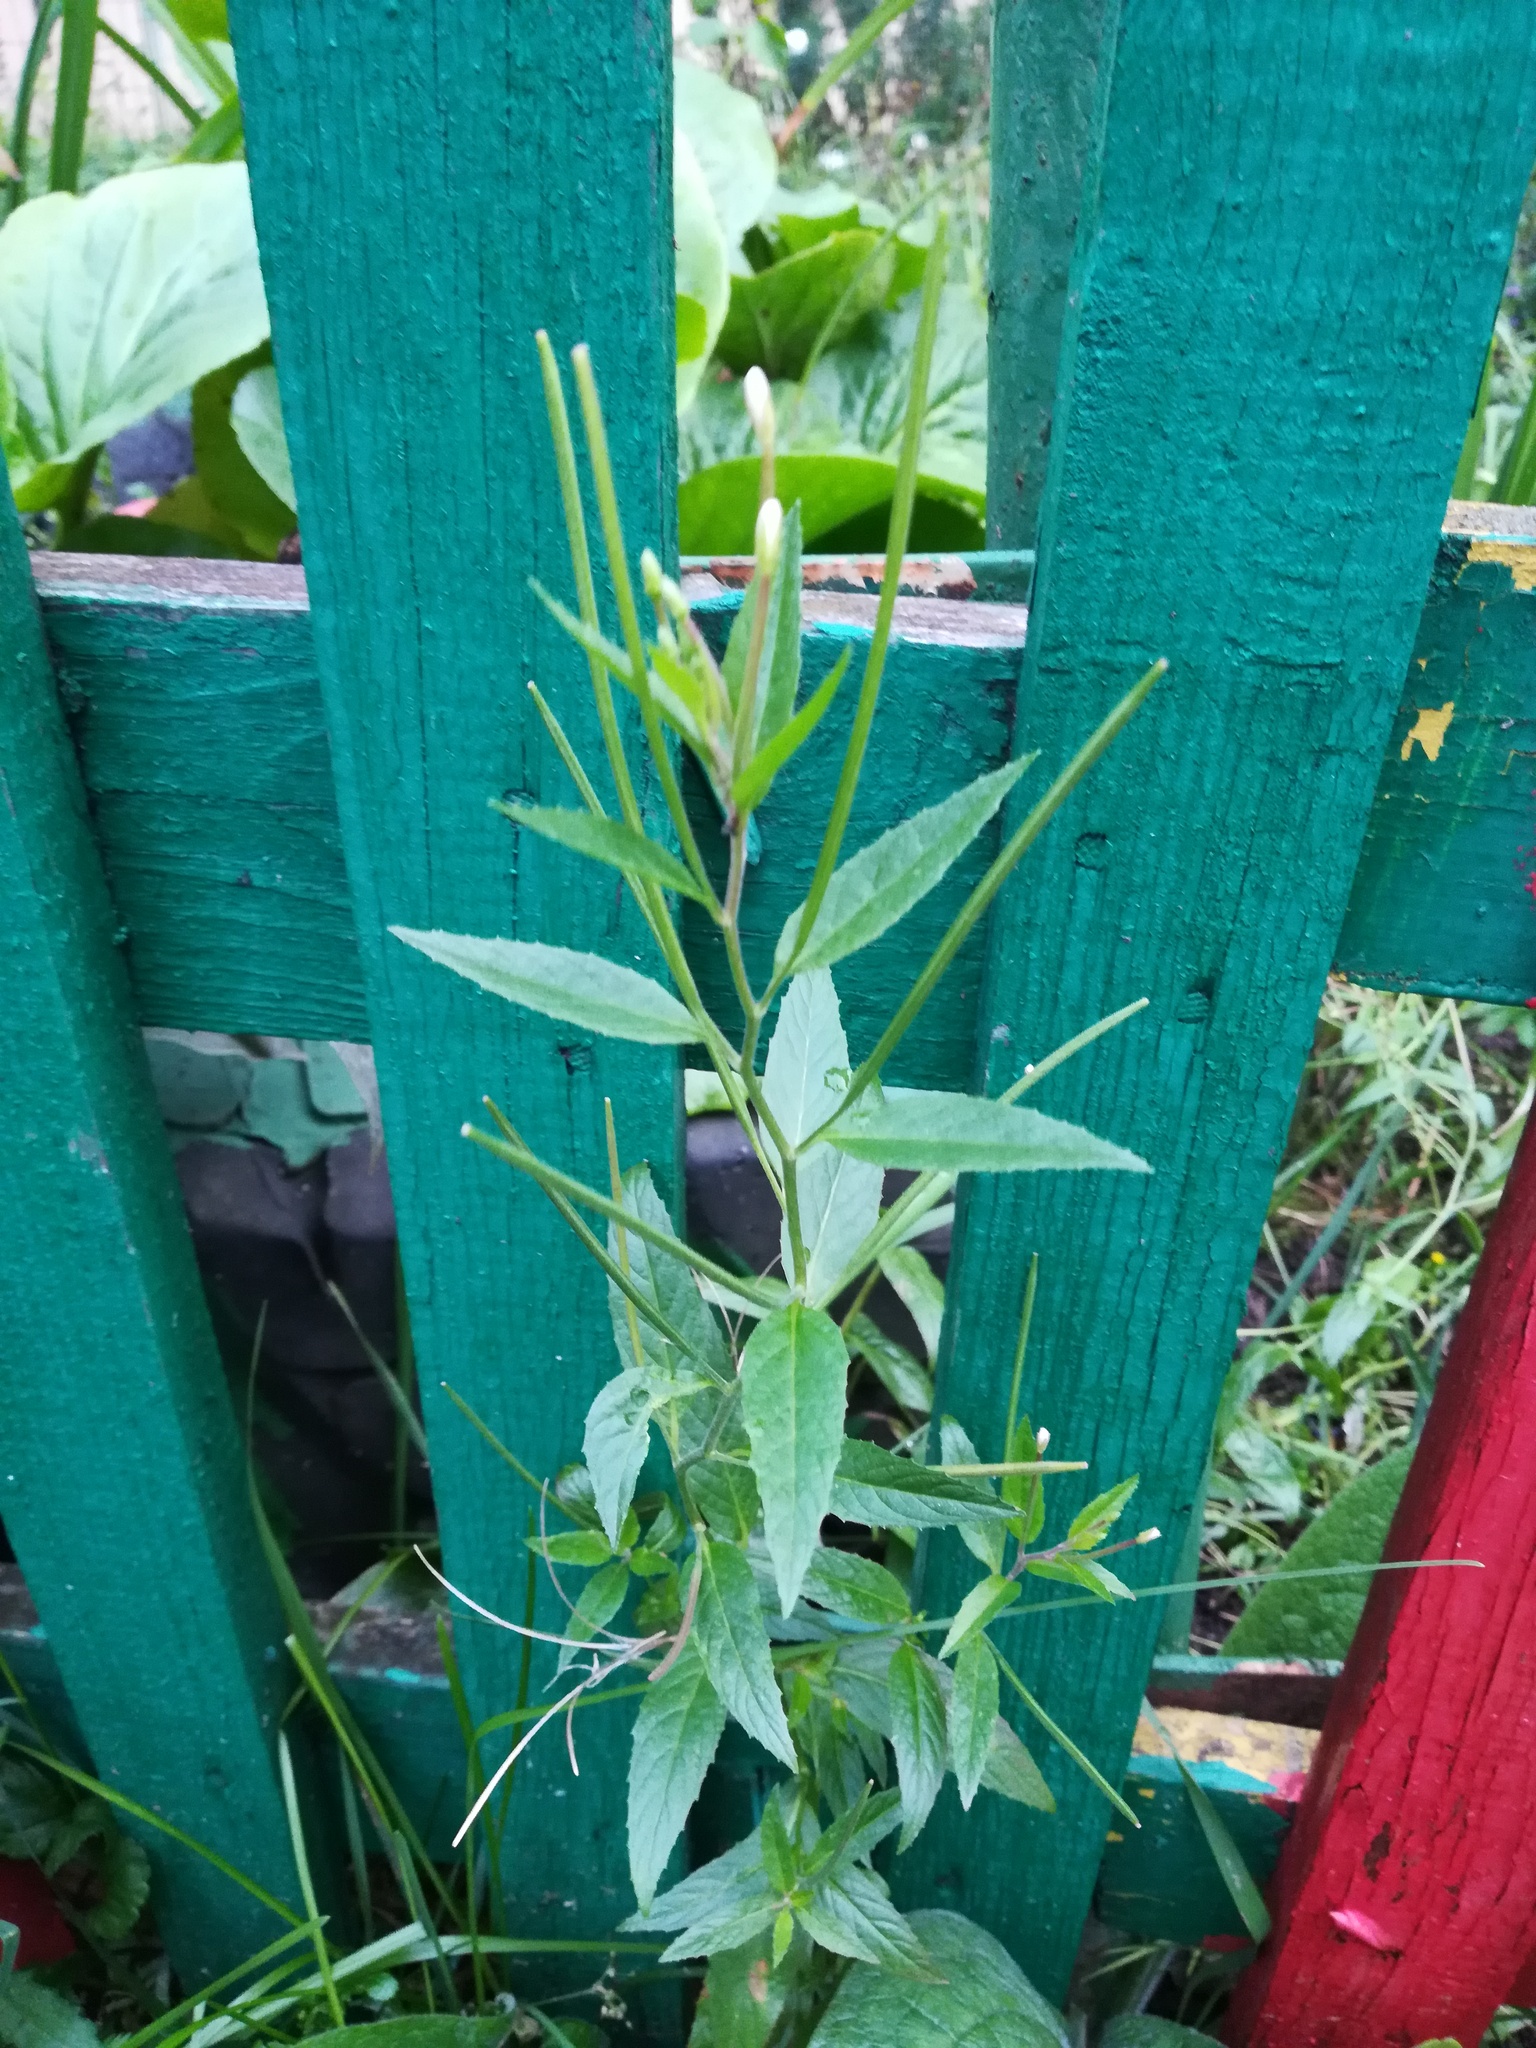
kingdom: Plantae
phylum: Tracheophyta
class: Magnoliopsida
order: Myrtales
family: Onagraceae
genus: Epilobium
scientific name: Epilobium pseudorubescens
